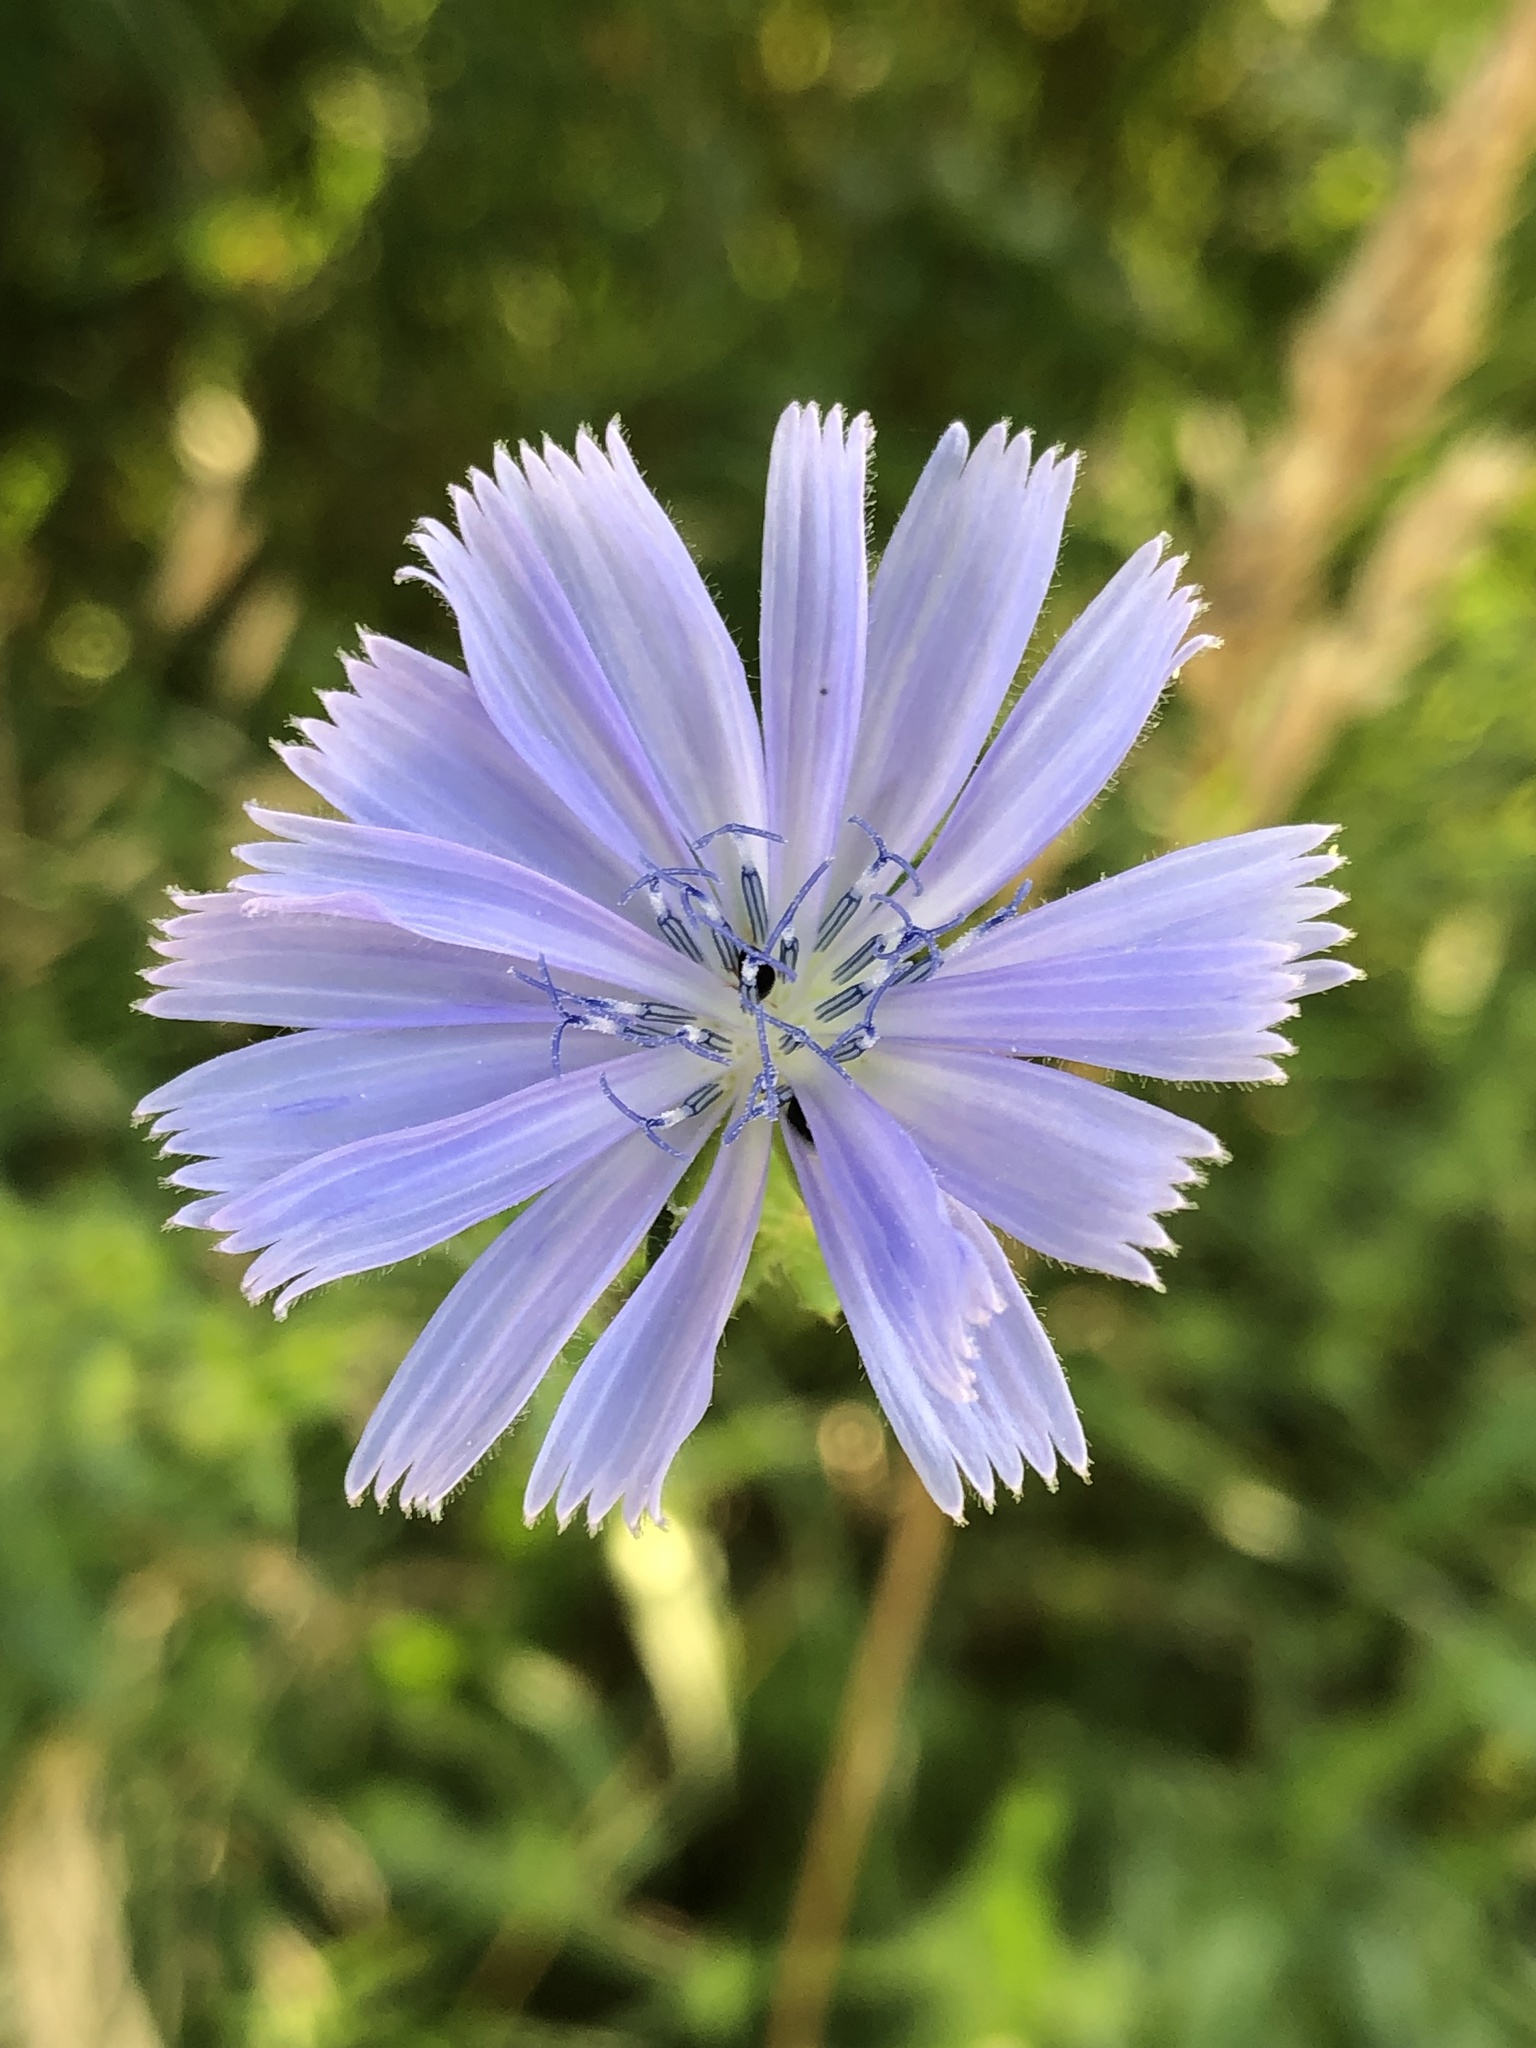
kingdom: Plantae
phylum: Tracheophyta
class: Magnoliopsida
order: Asterales
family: Asteraceae
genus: Cichorium
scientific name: Cichorium intybus
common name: Chicory
